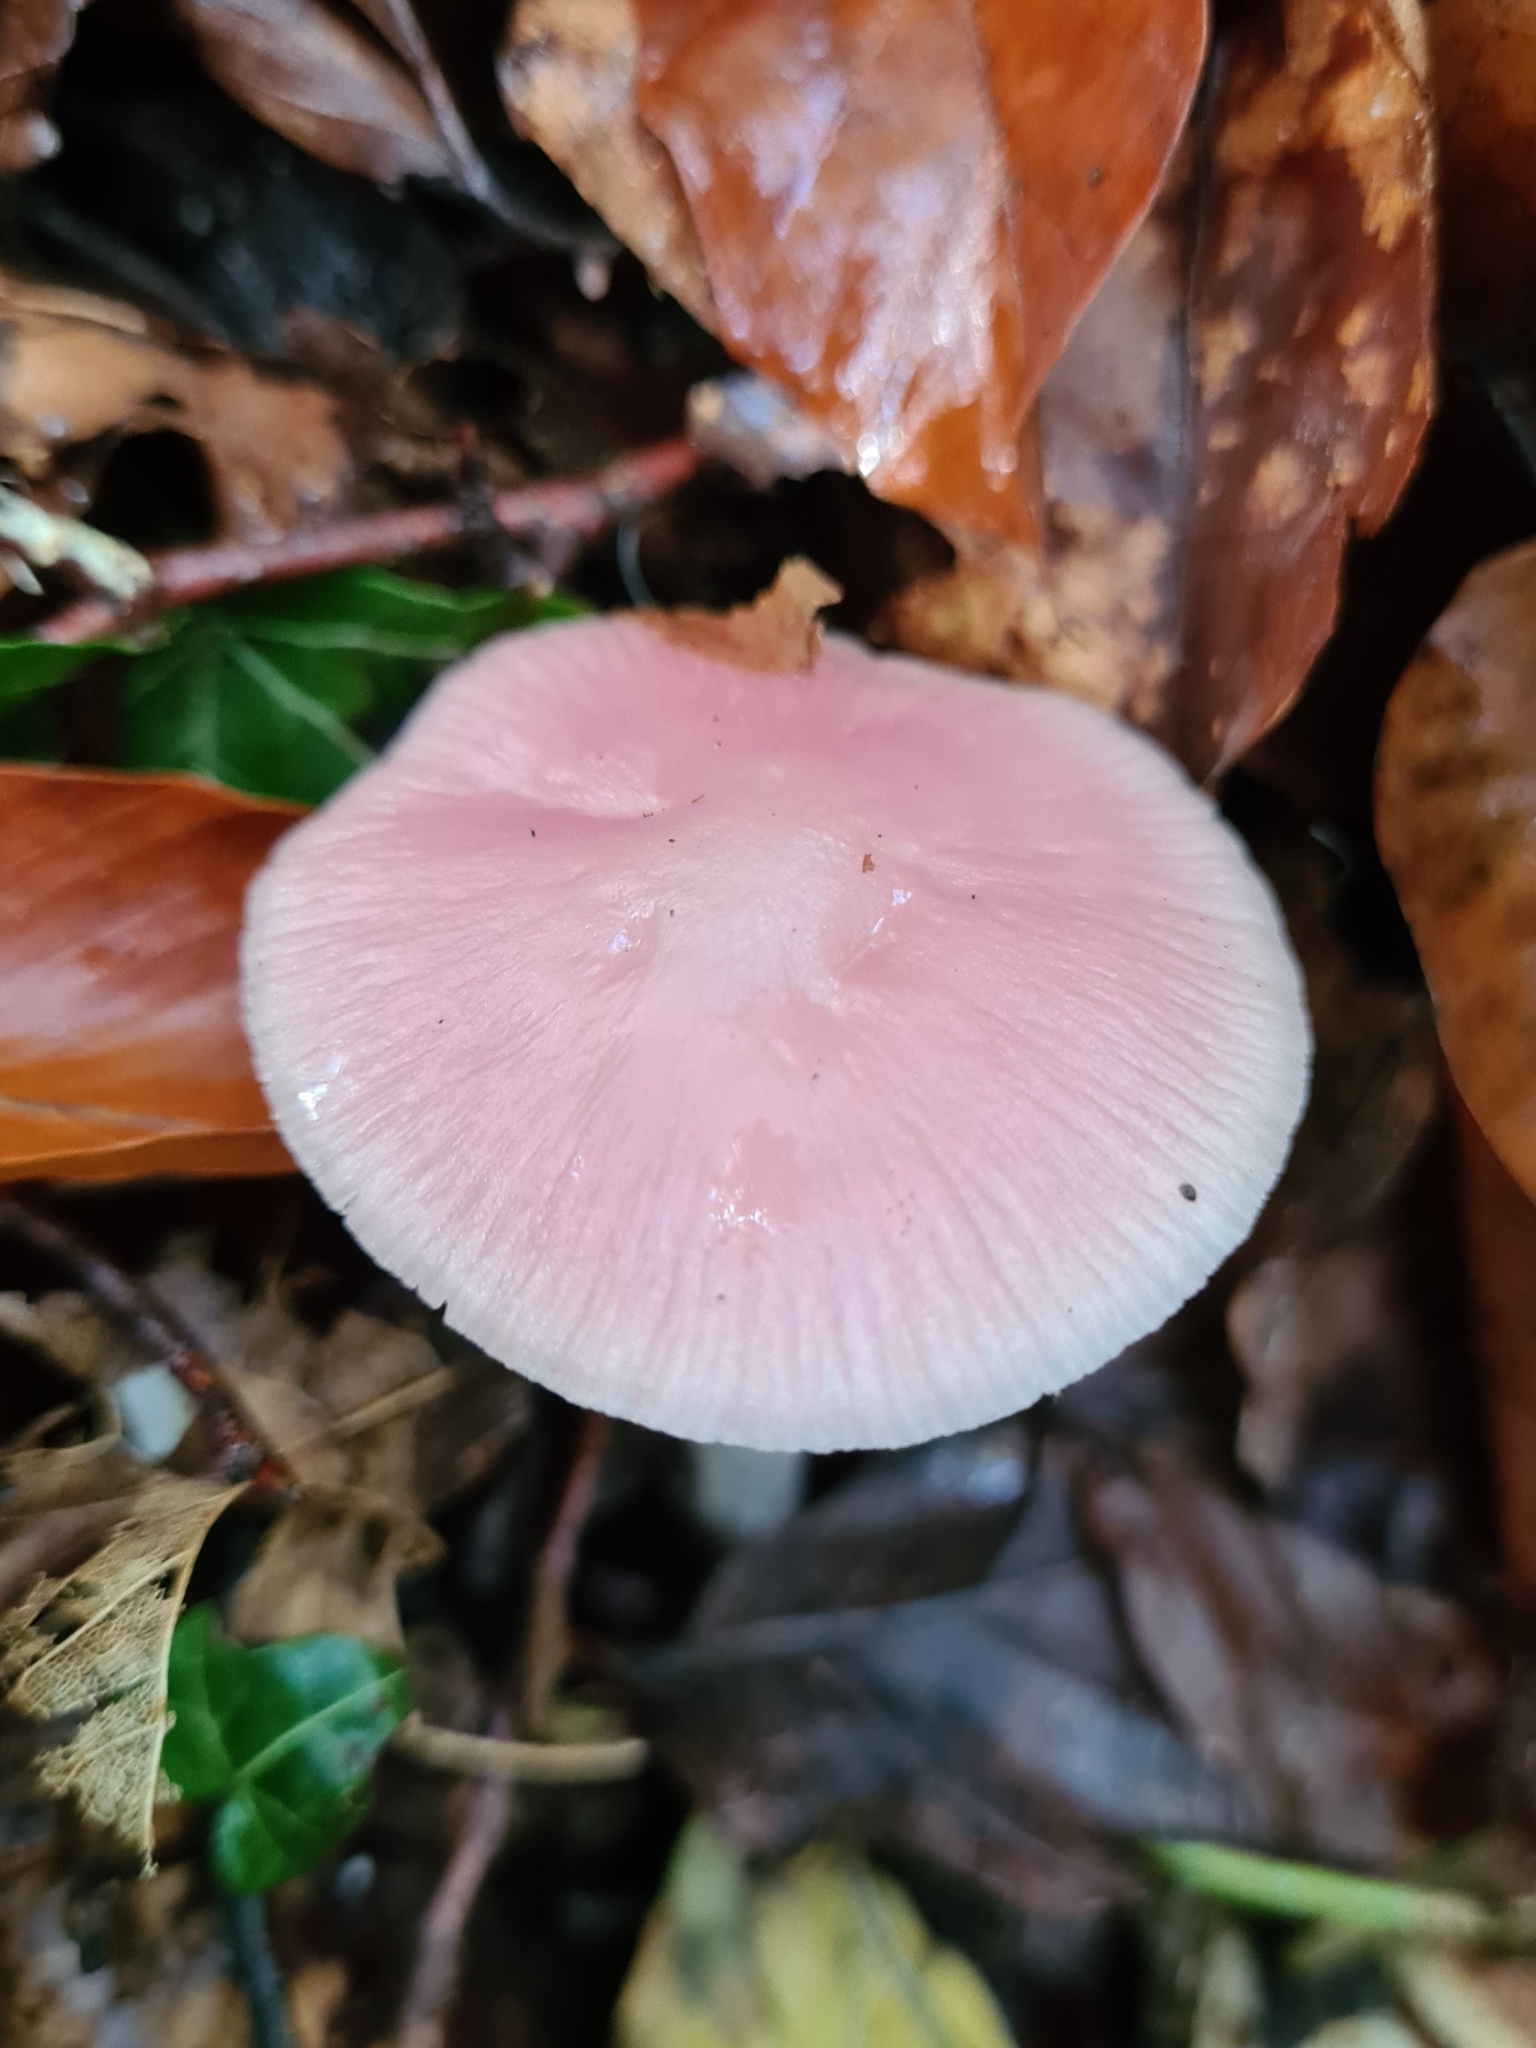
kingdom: Fungi
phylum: Basidiomycota
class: Agaricomycetes
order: Agaricales
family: Mycenaceae
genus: Mycena
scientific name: Mycena rosea
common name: Rosy bonnet
